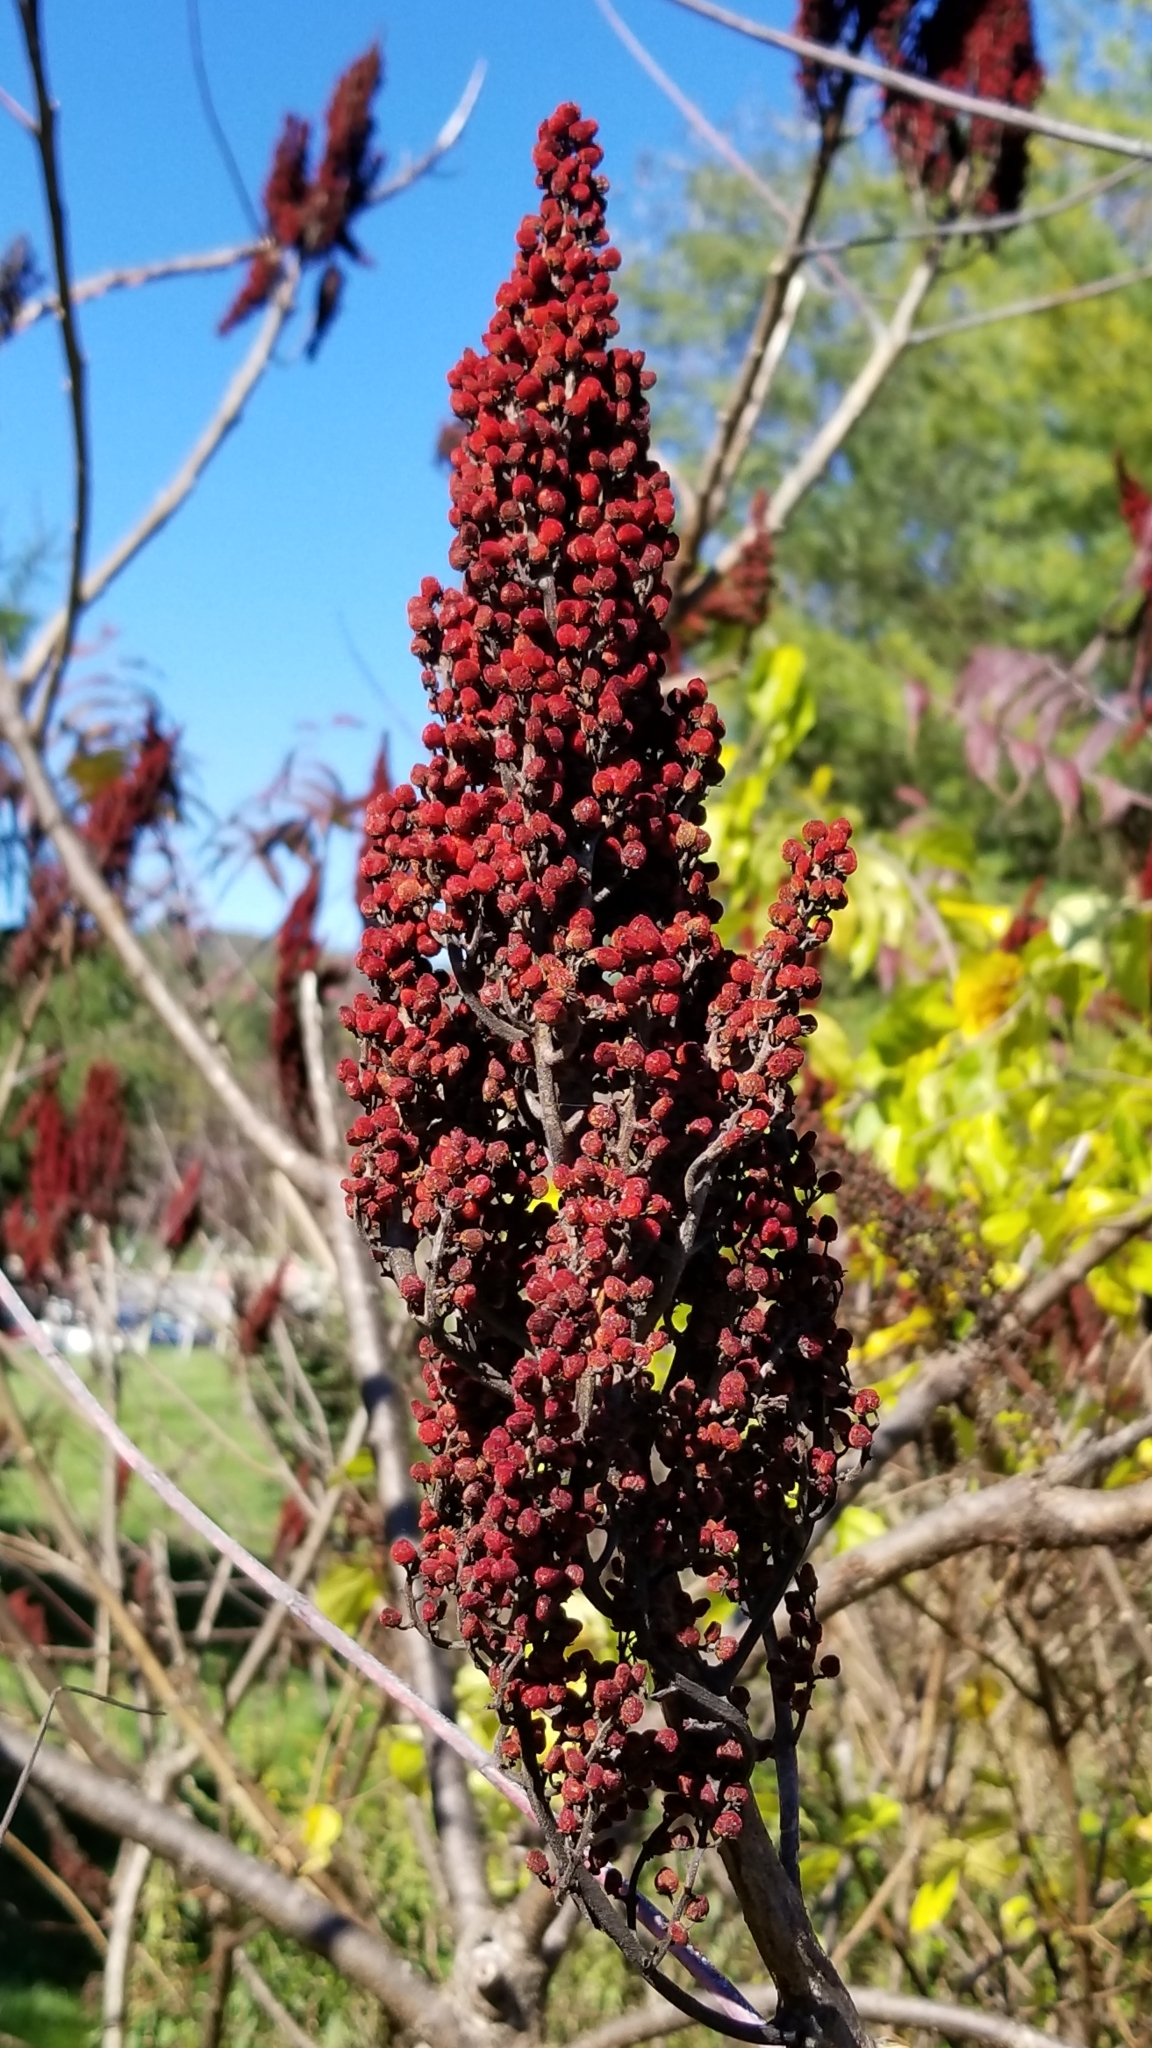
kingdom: Plantae
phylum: Tracheophyta
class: Magnoliopsida
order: Sapindales
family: Anacardiaceae
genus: Rhus
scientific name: Rhus glabra
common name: Scarlet sumac
